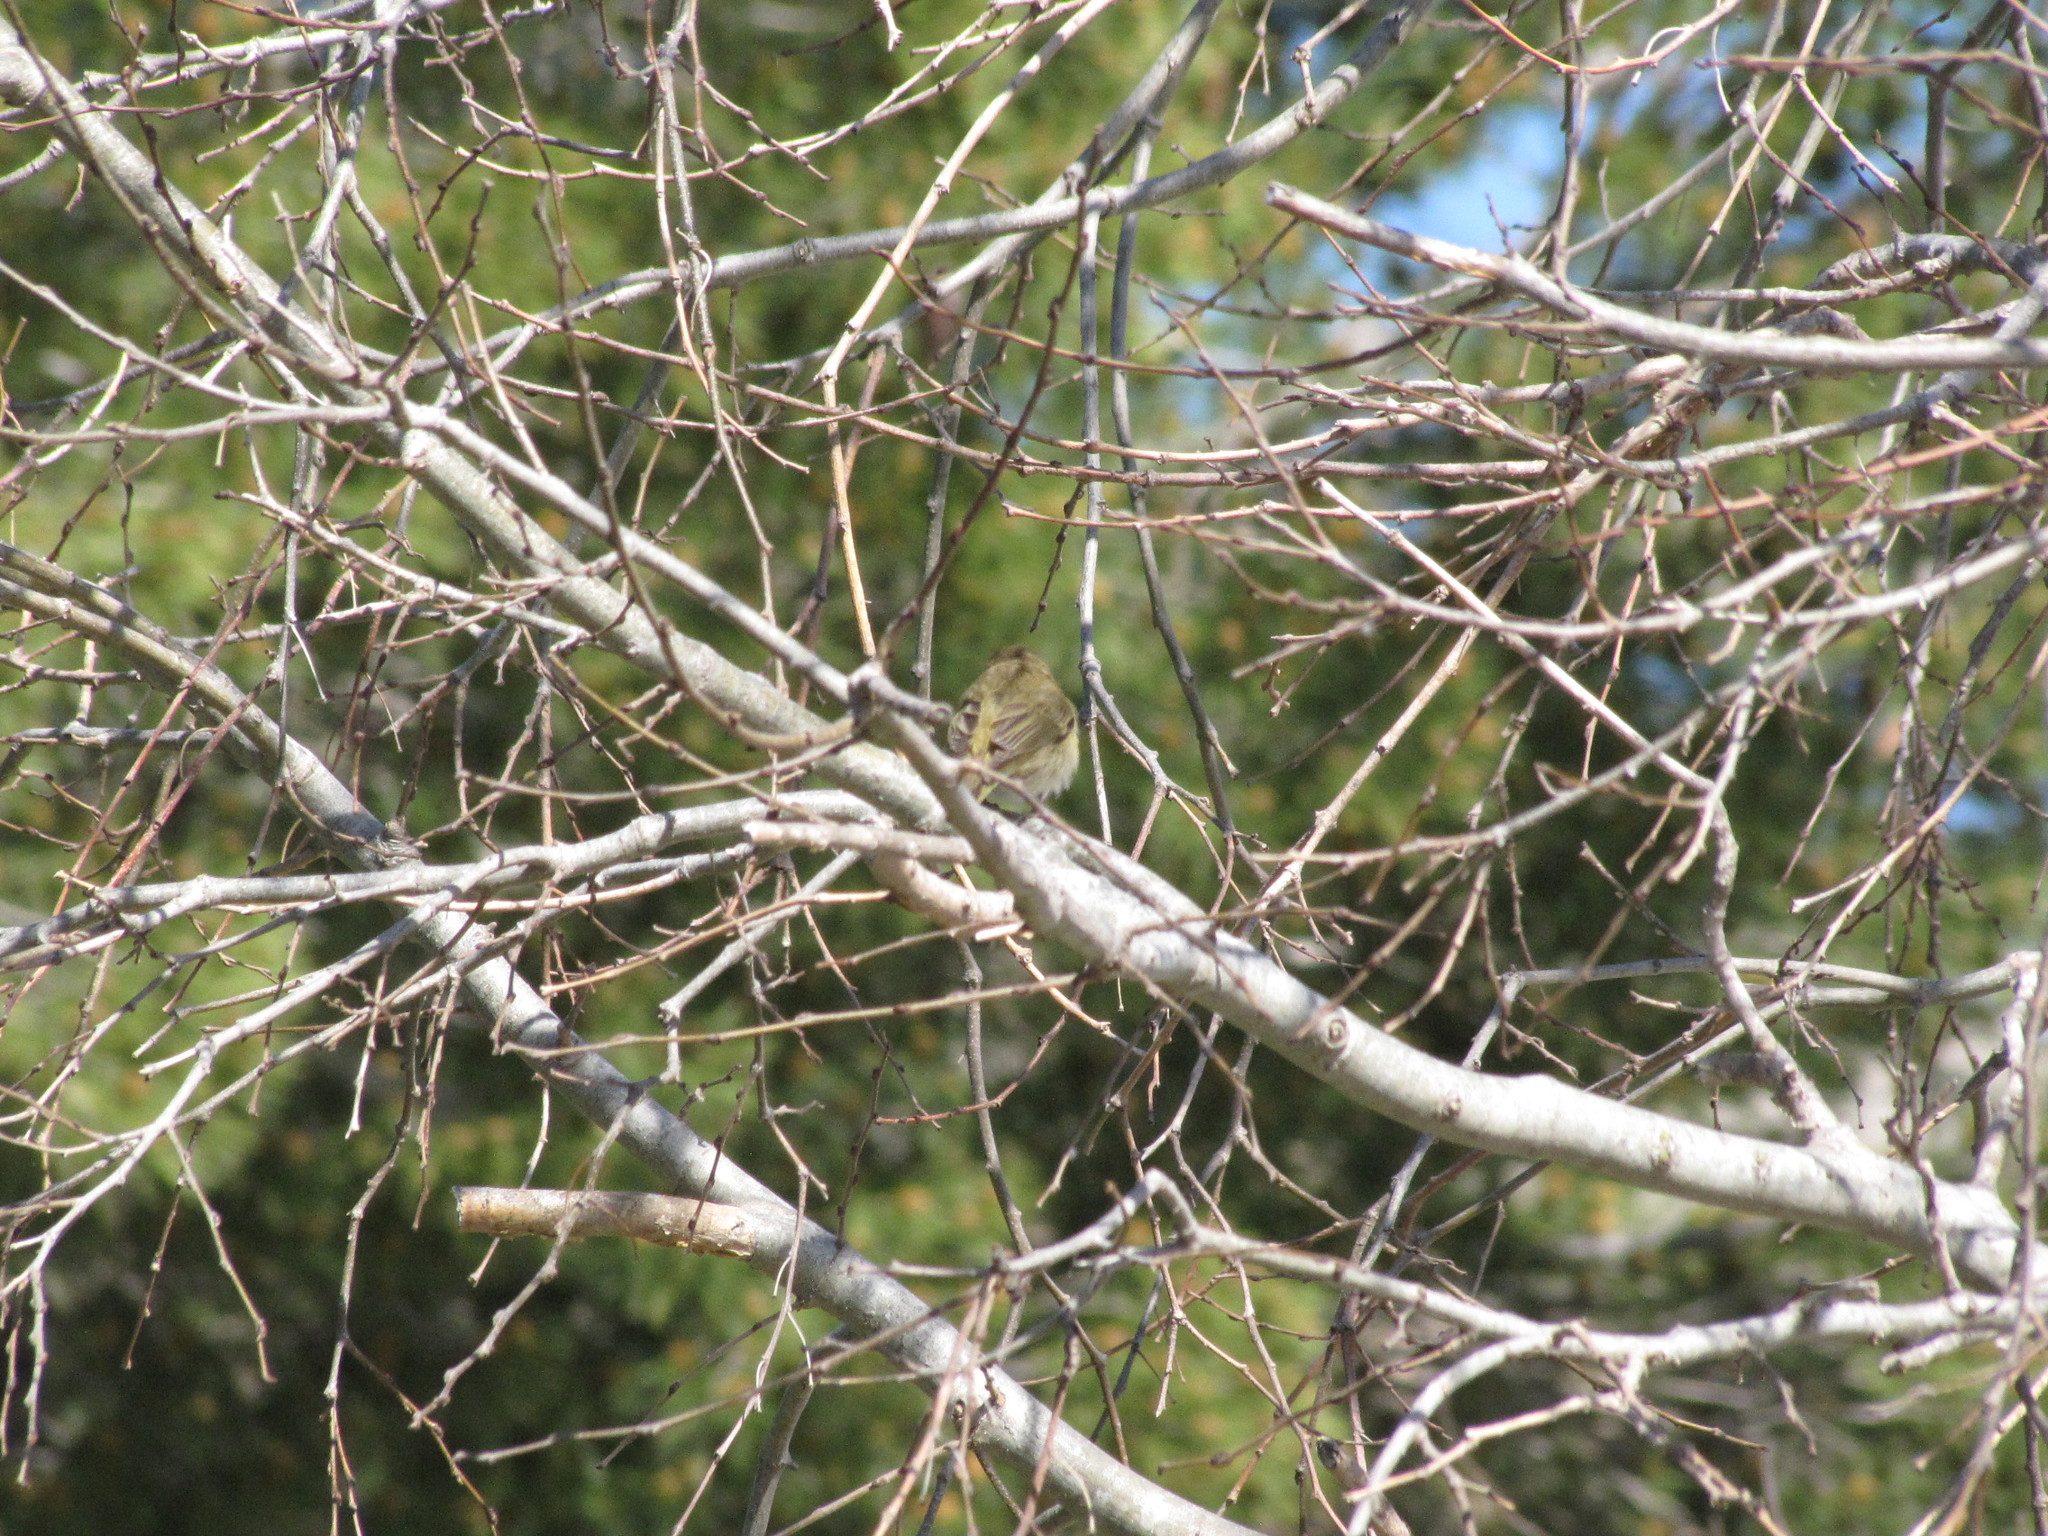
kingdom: Animalia
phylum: Chordata
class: Aves
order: Passeriformes
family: Phylloscopidae
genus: Phylloscopus
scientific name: Phylloscopus collybita
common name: Common chiffchaff
